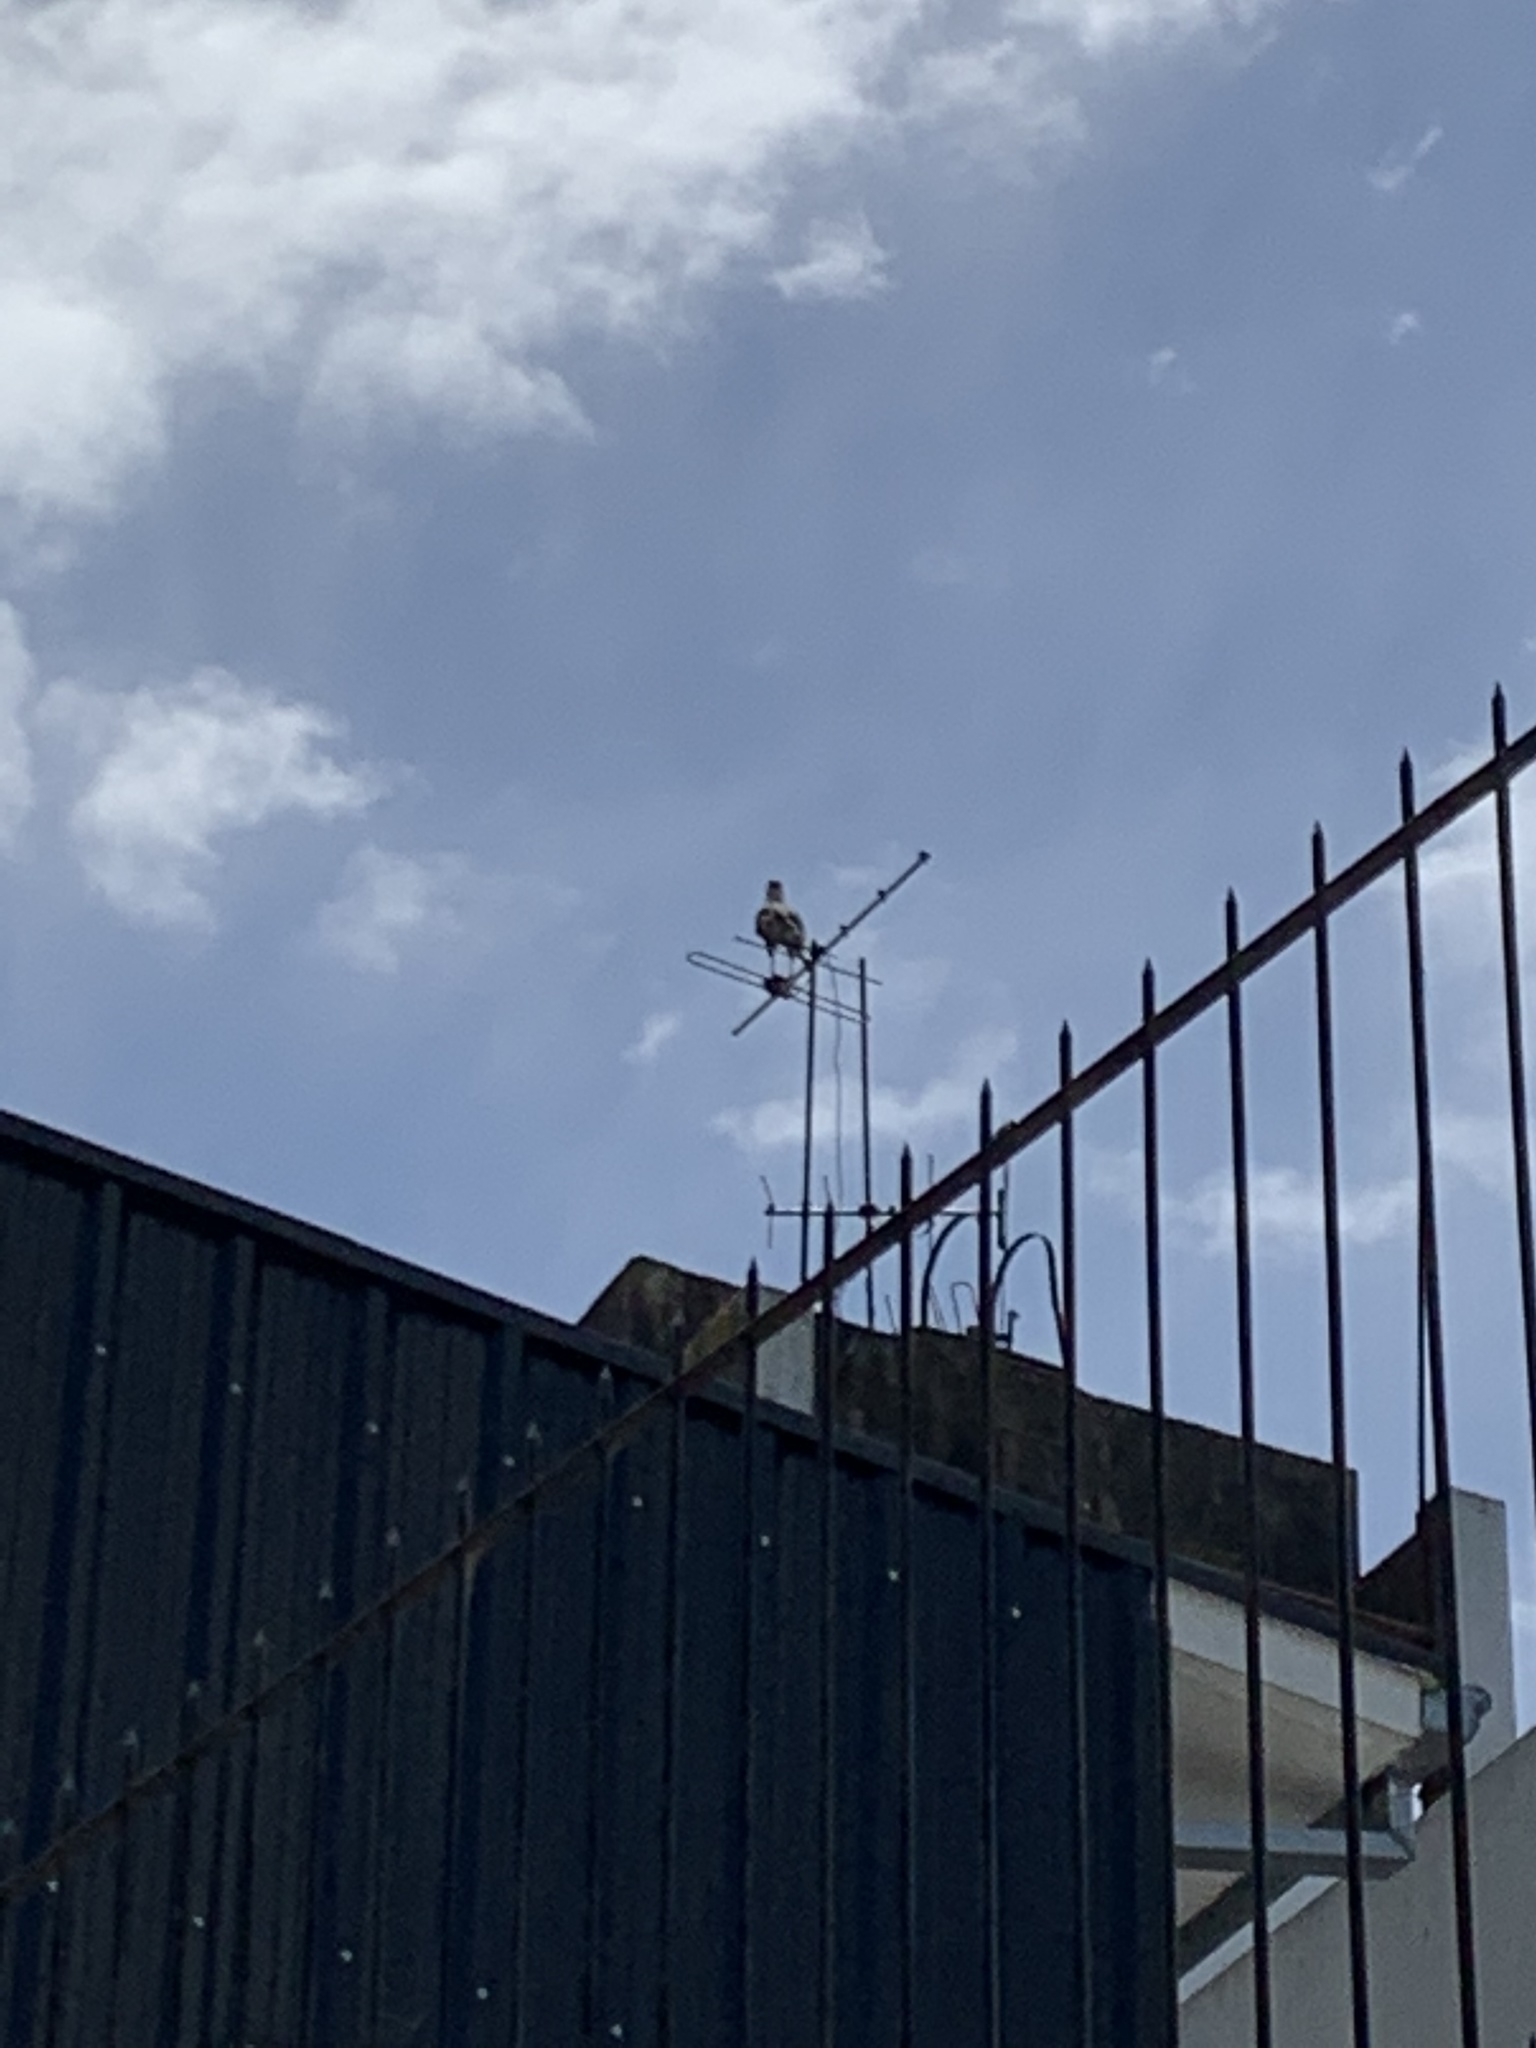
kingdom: Animalia
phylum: Chordata
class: Aves
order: Falconiformes
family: Falconidae
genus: Caracara
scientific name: Caracara plancus
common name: Southern caracara
